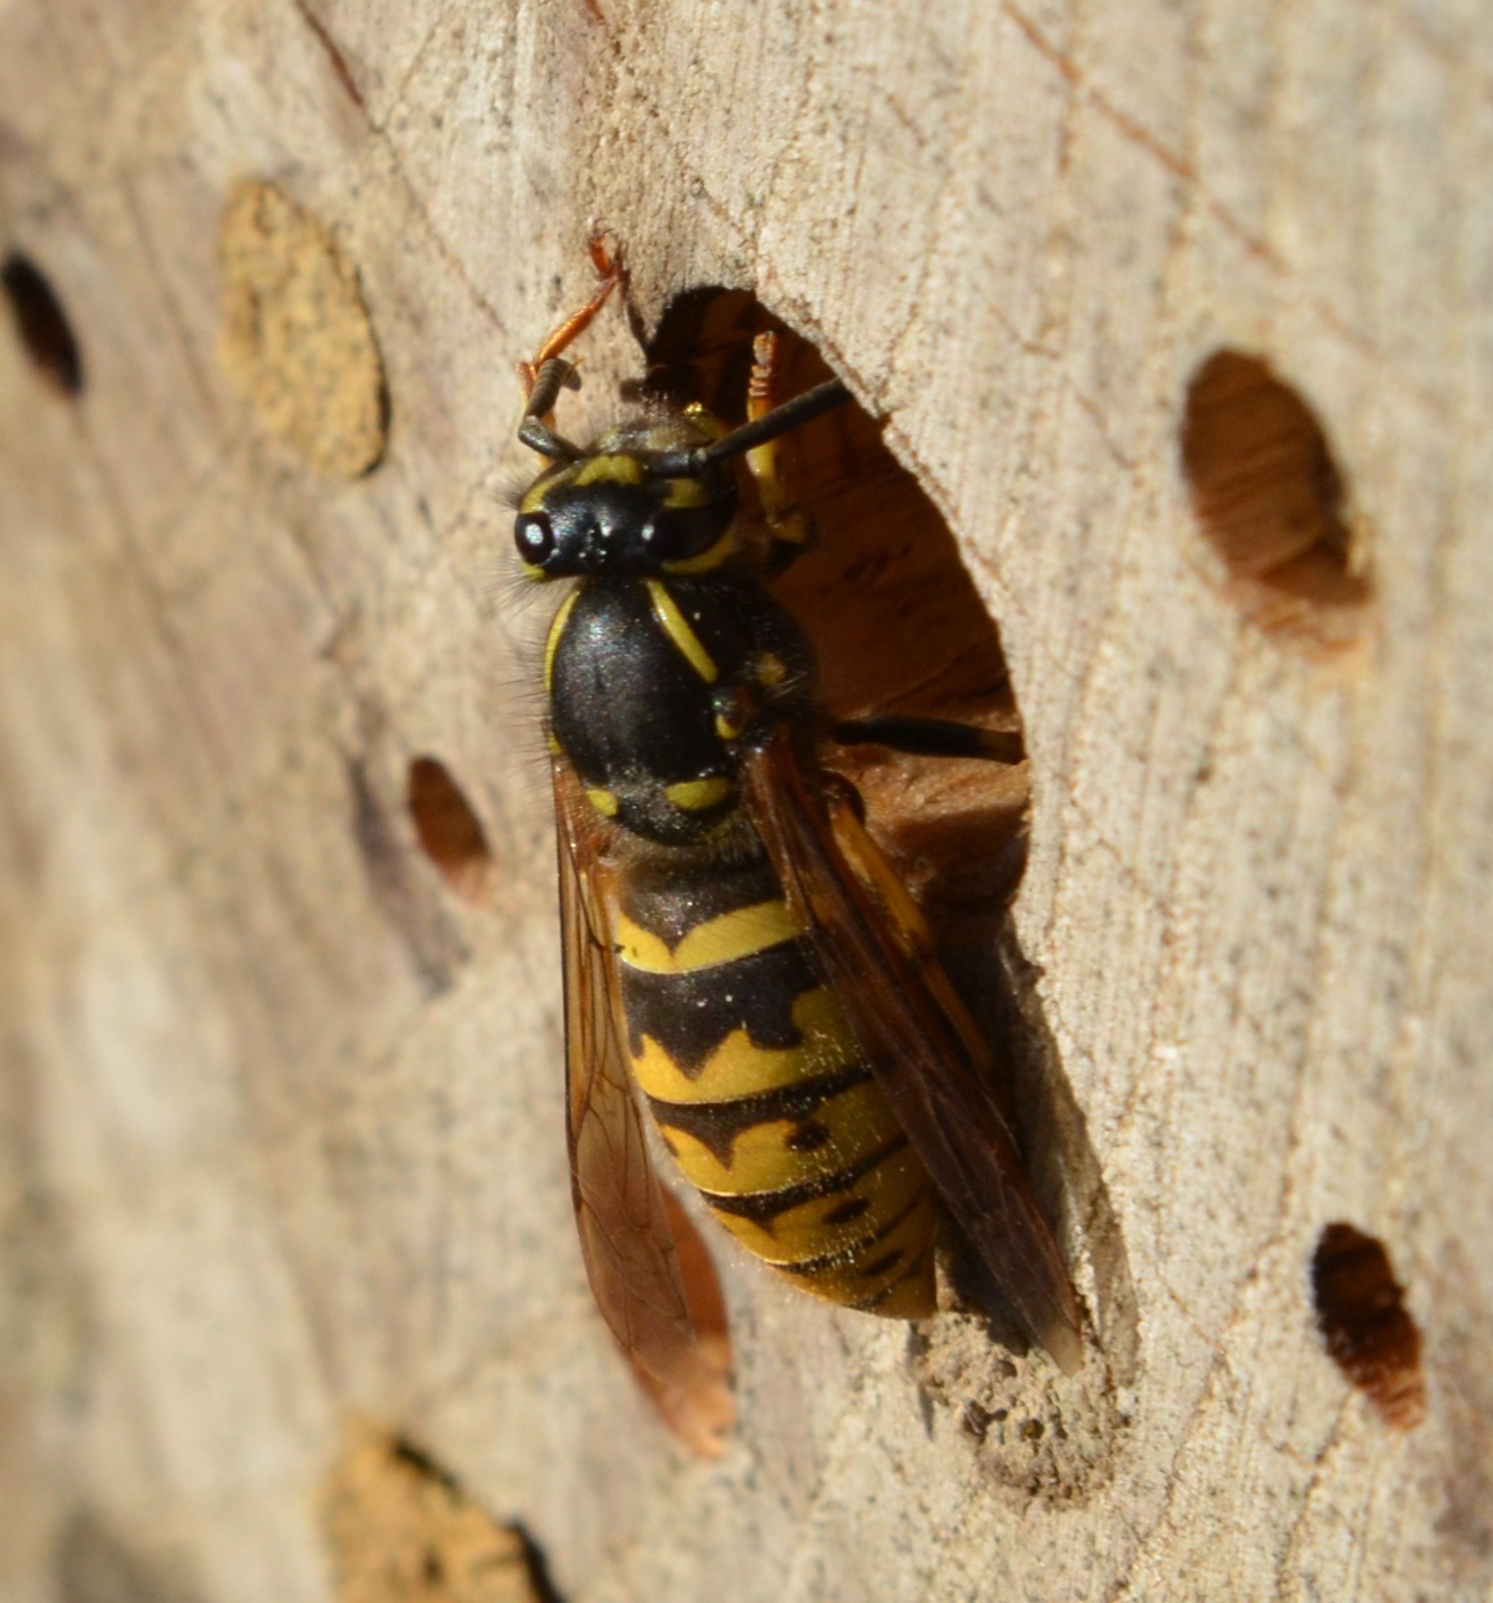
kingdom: Animalia
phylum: Arthropoda
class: Insecta
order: Hymenoptera
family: Vespidae
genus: Vespula
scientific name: Vespula vulgaris
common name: Common wasp
